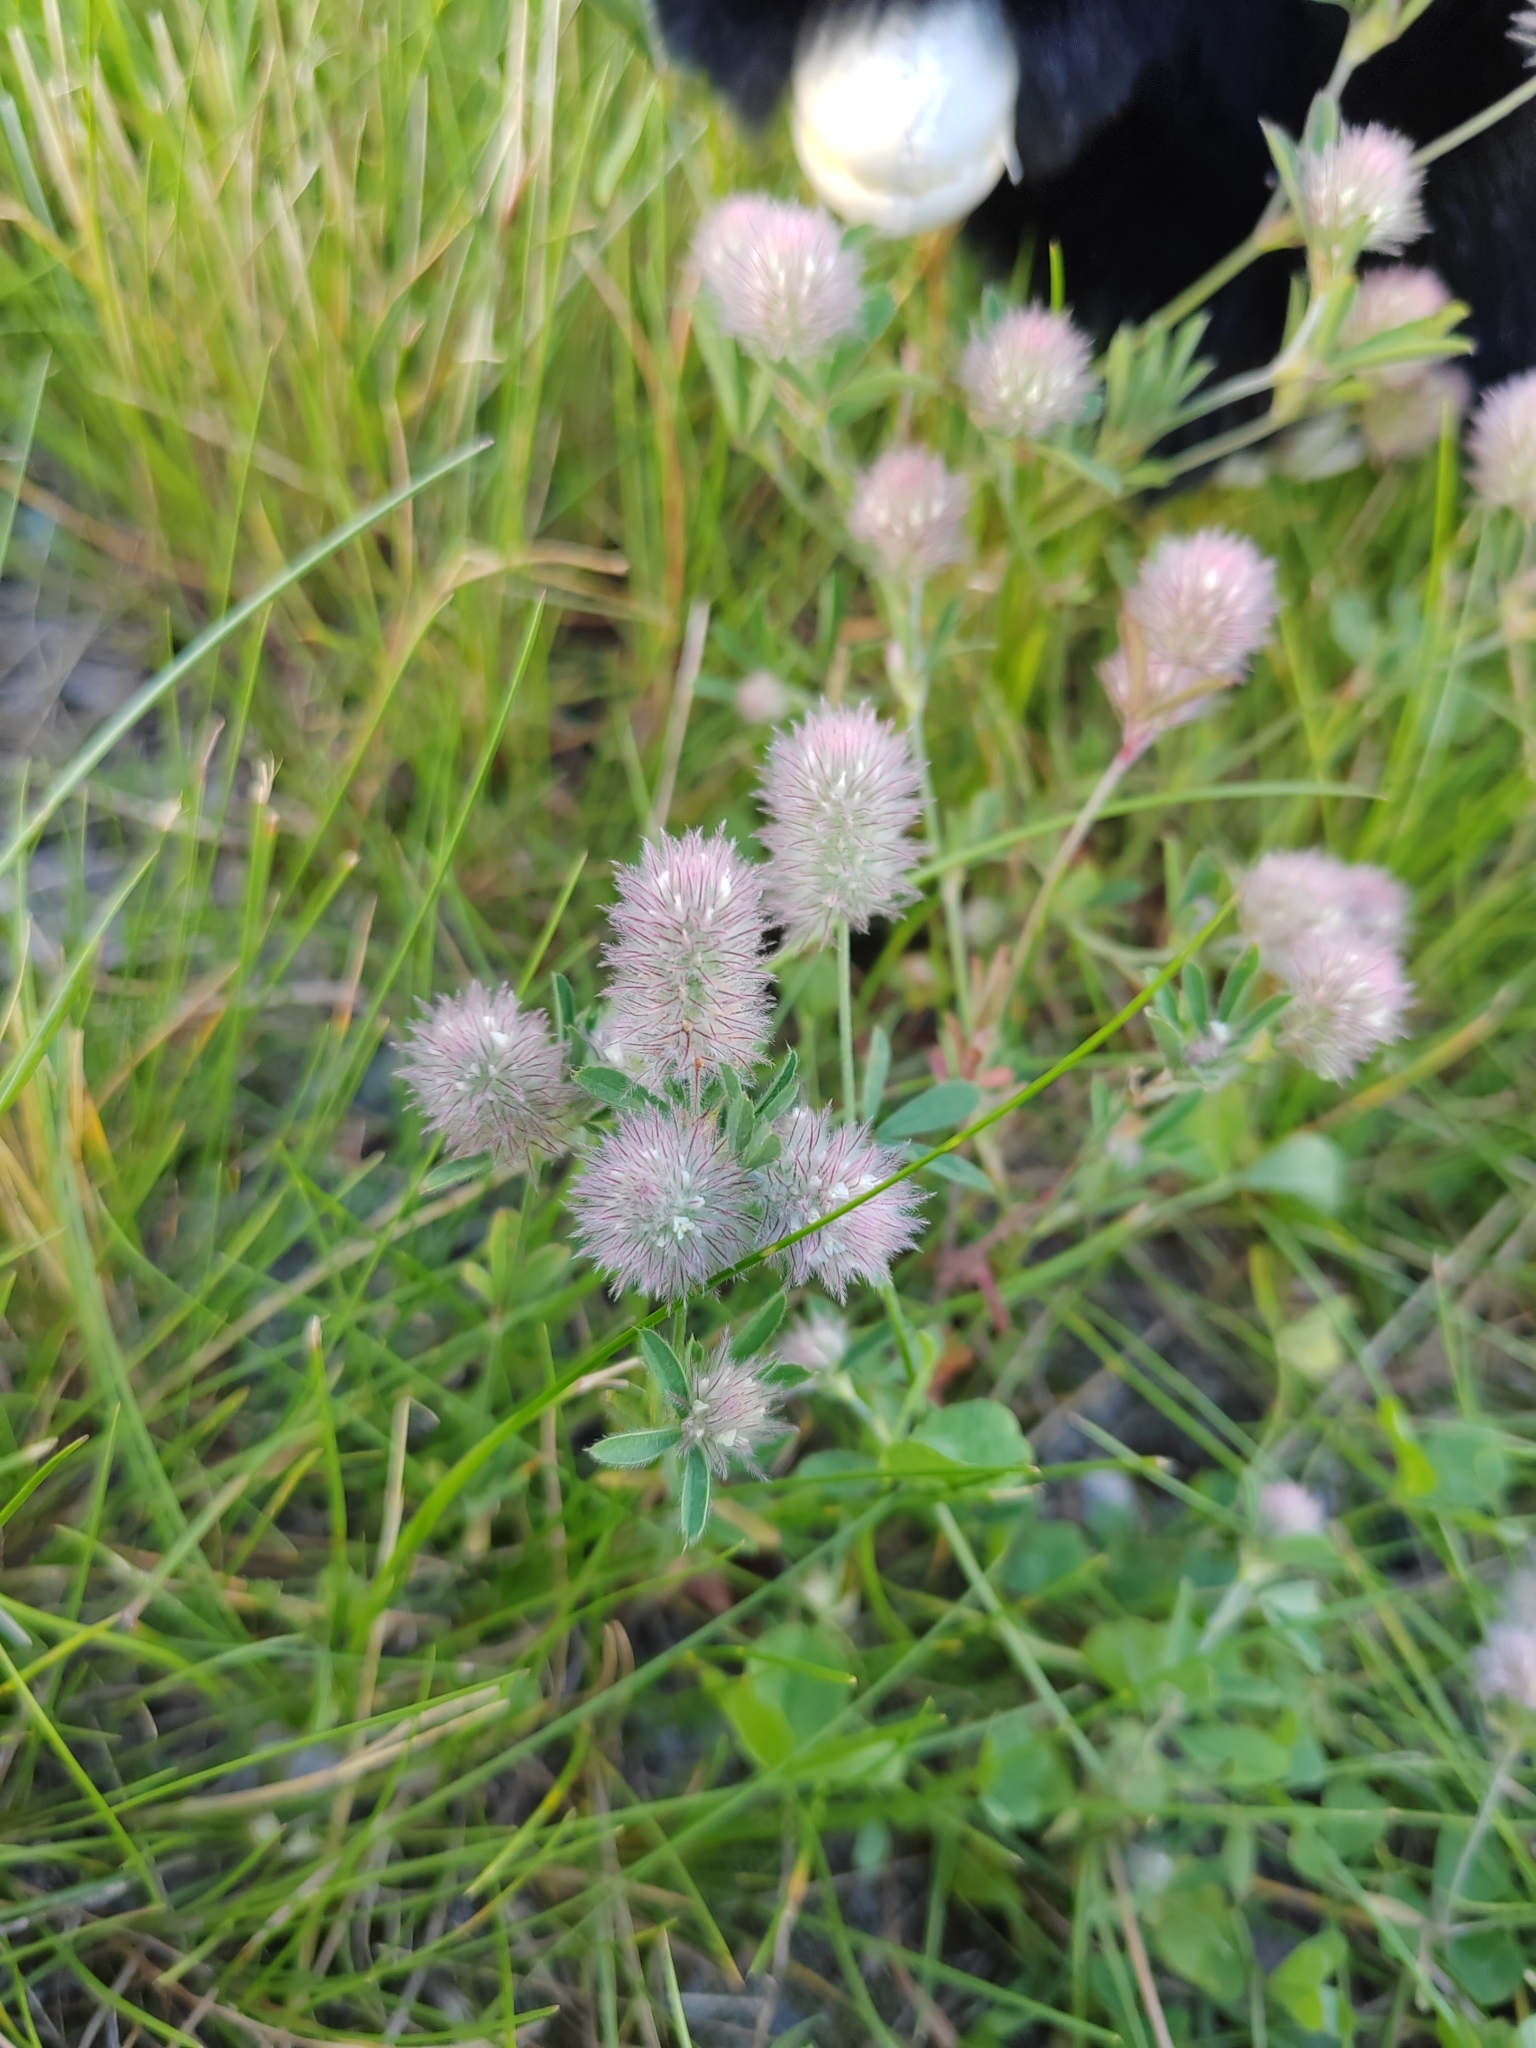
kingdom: Plantae
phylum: Tracheophyta
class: Magnoliopsida
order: Fabales
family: Fabaceae
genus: Trifolium
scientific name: Trifolium arvense
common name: Hare's-foot clover
